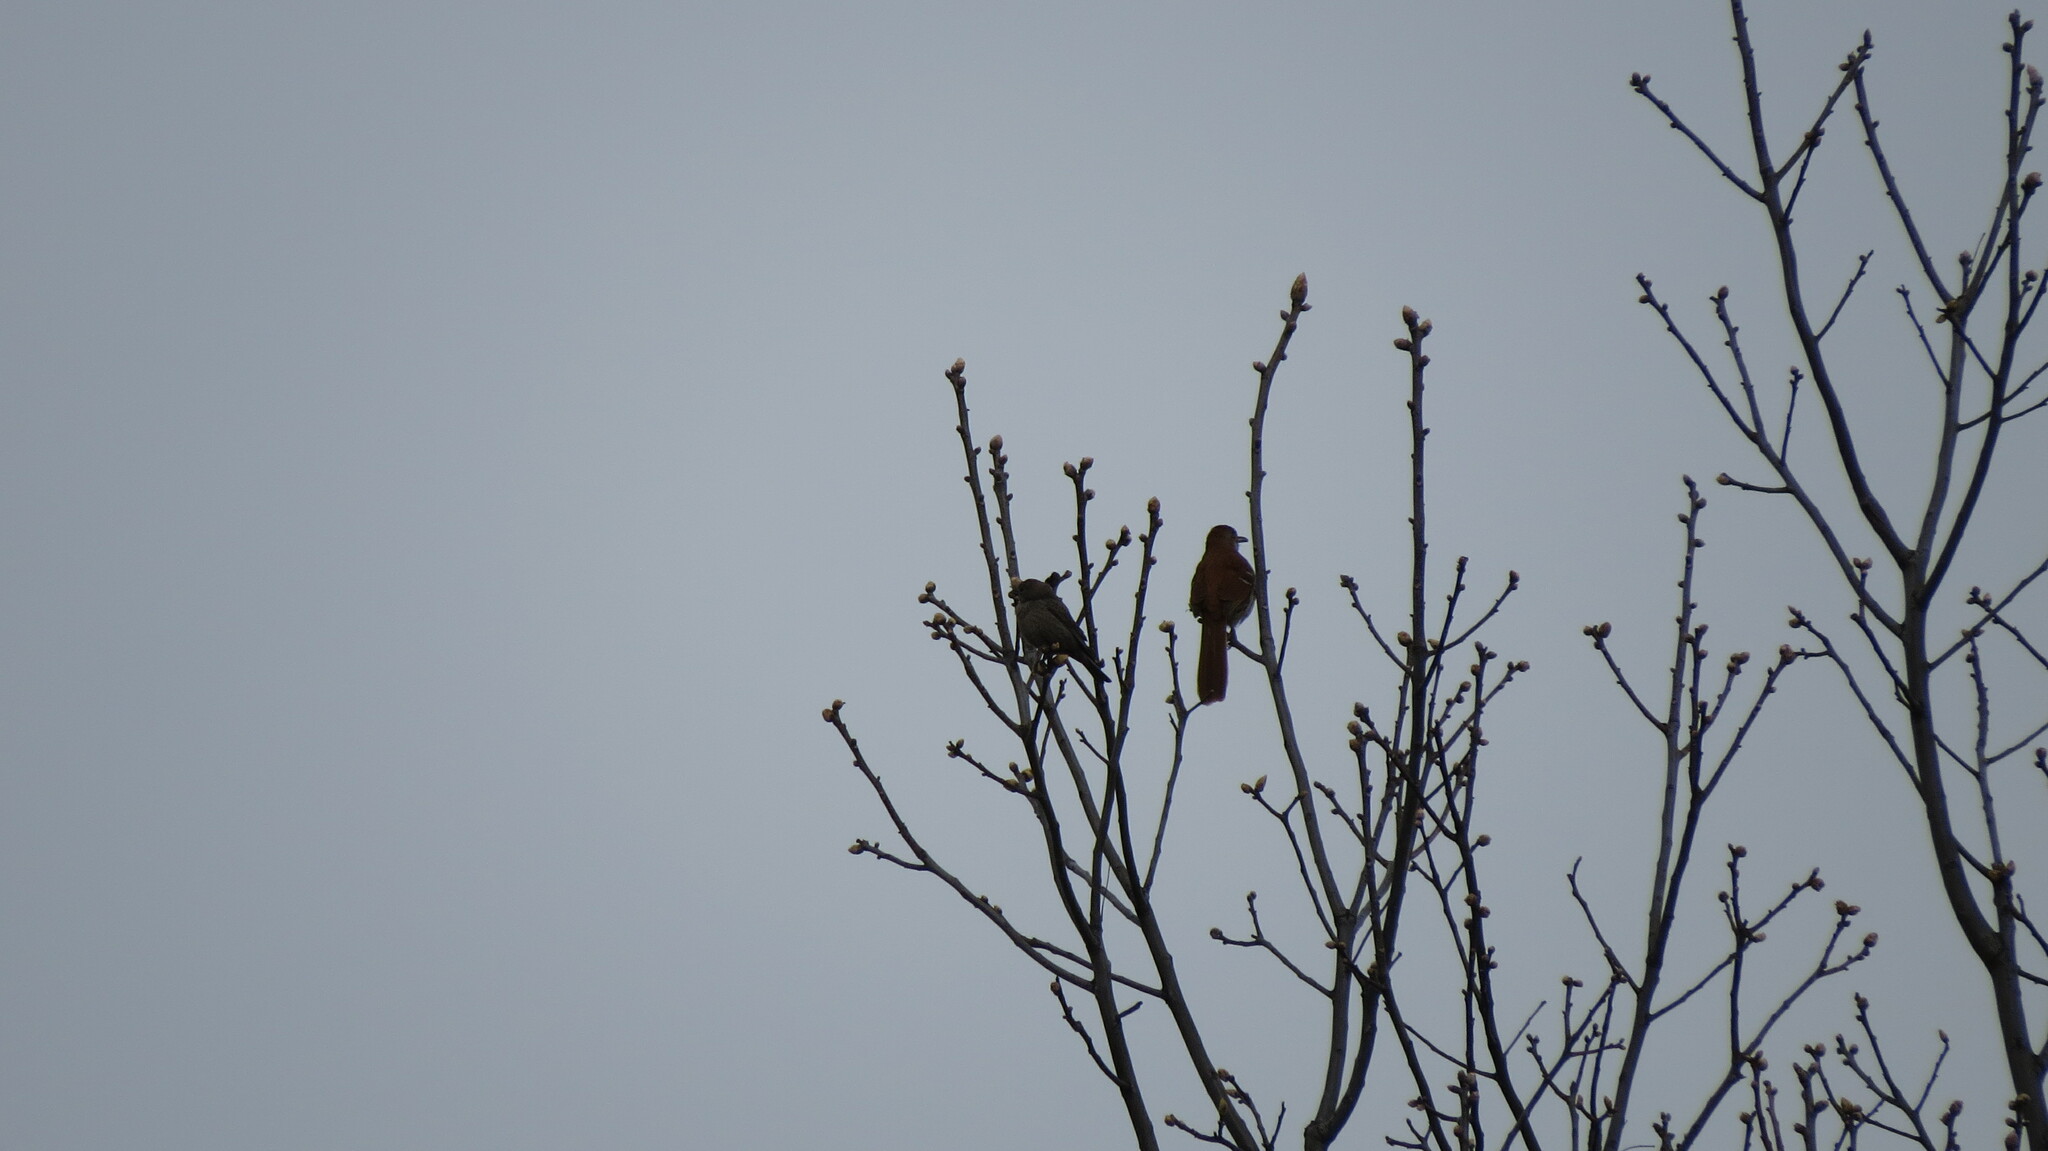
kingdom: Animalia
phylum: Chordata
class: Aves
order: Passeriformes
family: Icteridae
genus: Molothrus
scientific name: Molothrus ater
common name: Brown-headed cowbird
